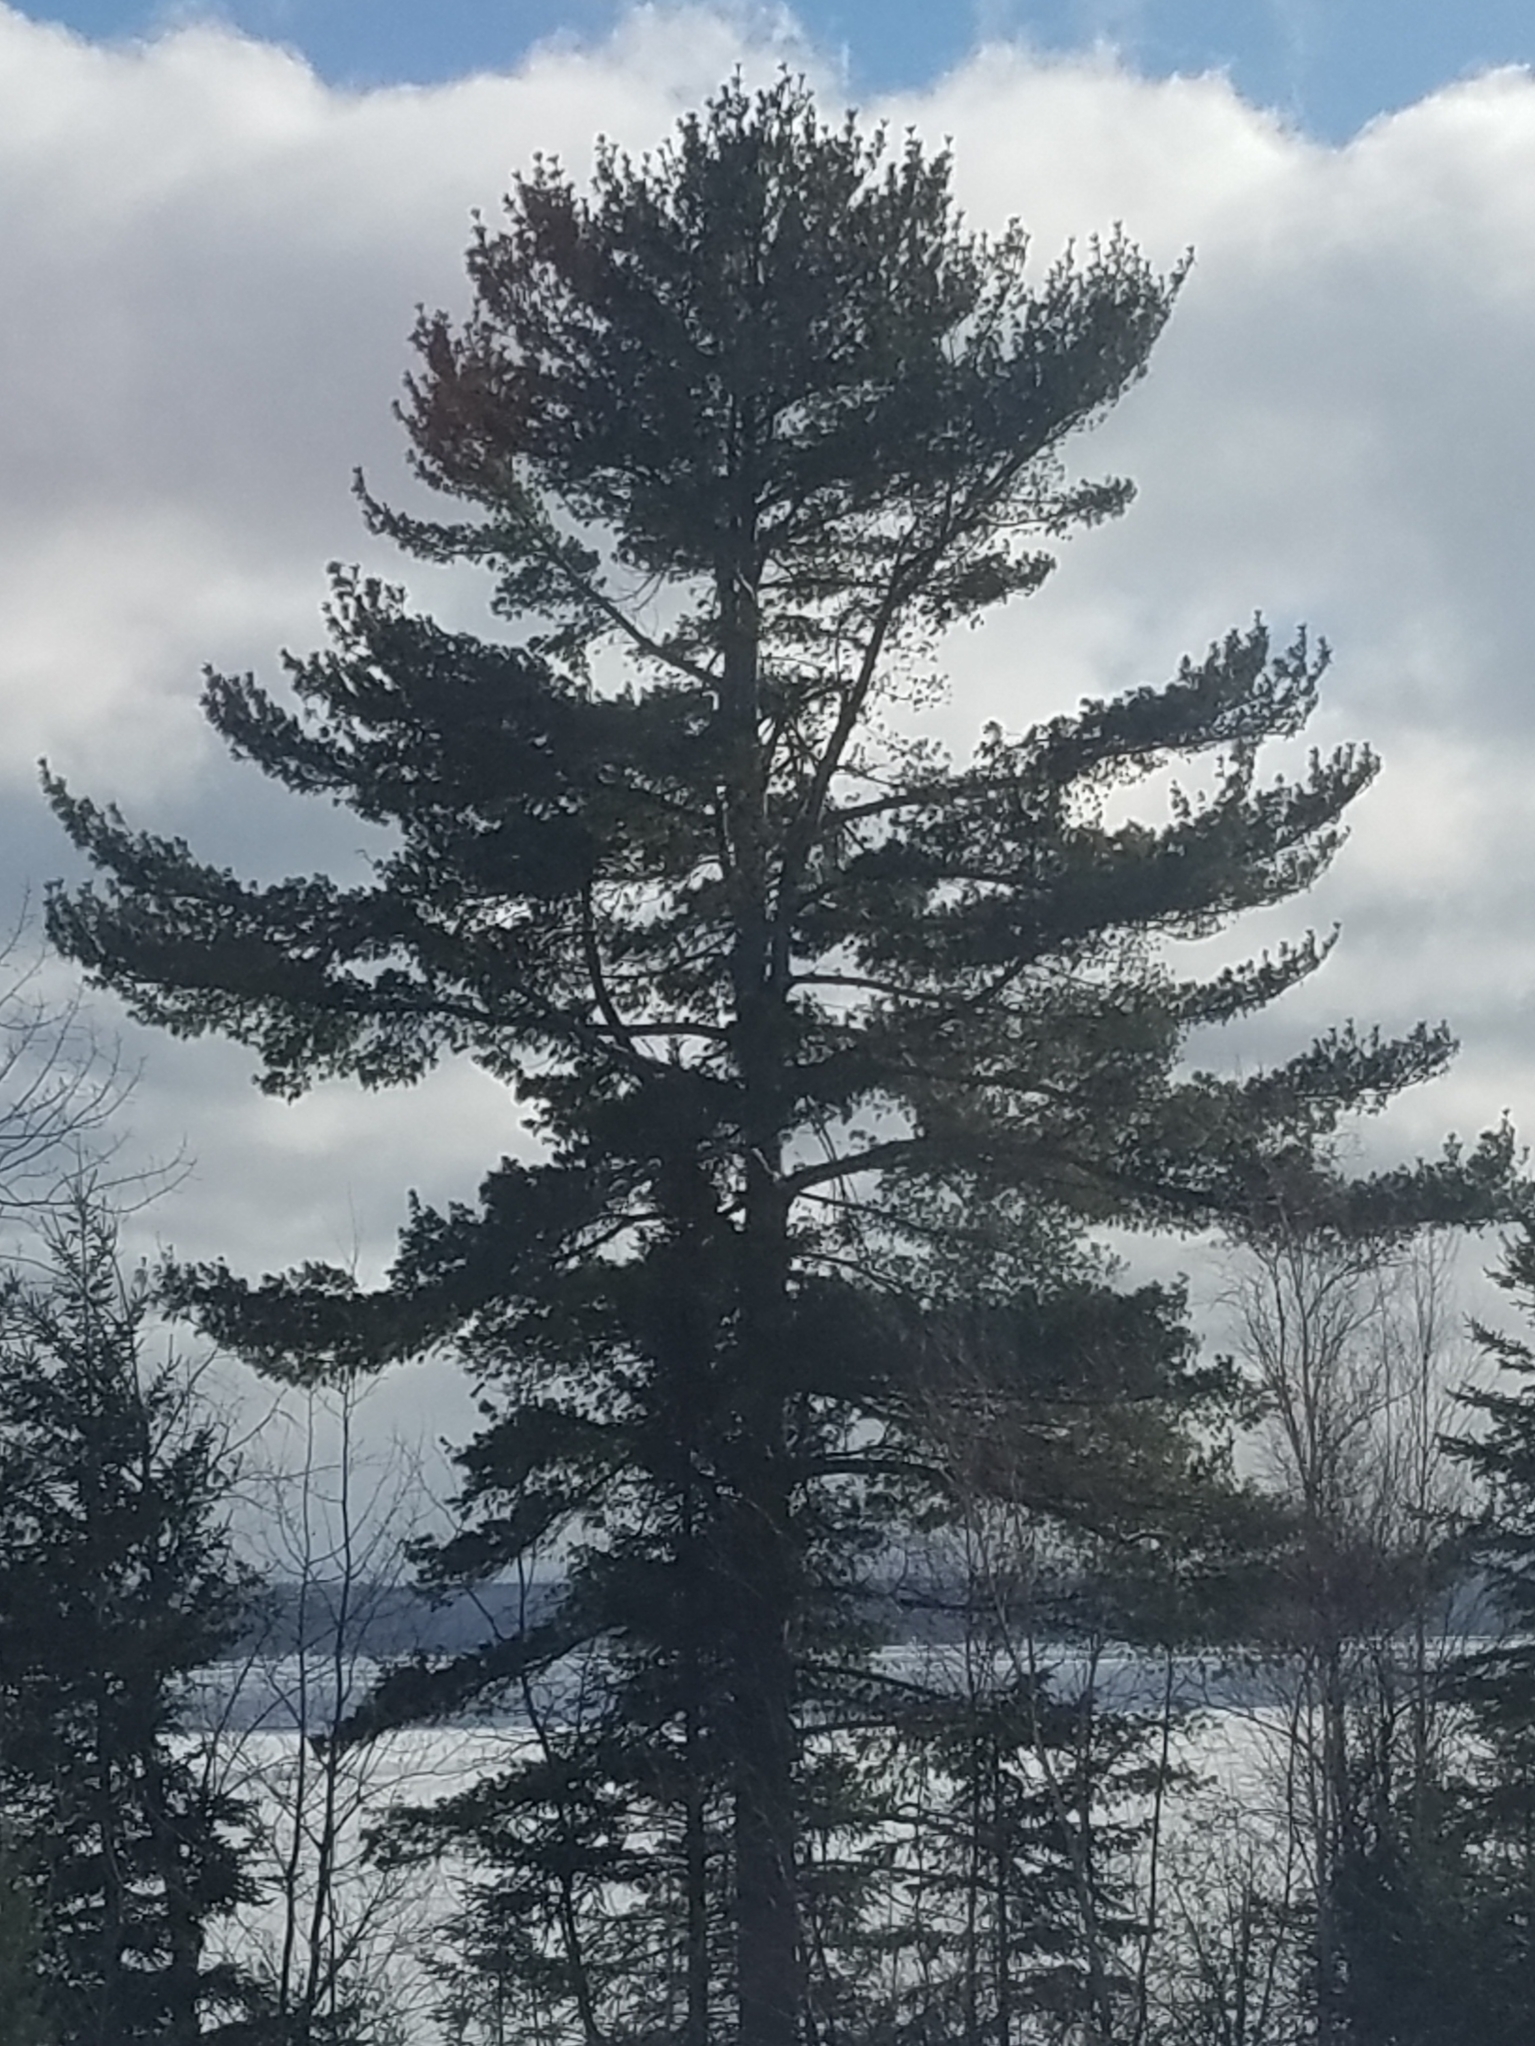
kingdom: Plantae
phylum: Tracheophyta
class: Pinopsida
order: Pinales
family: Pinaceae
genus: Pinus
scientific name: Pinus strobus
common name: Weymouth pine
